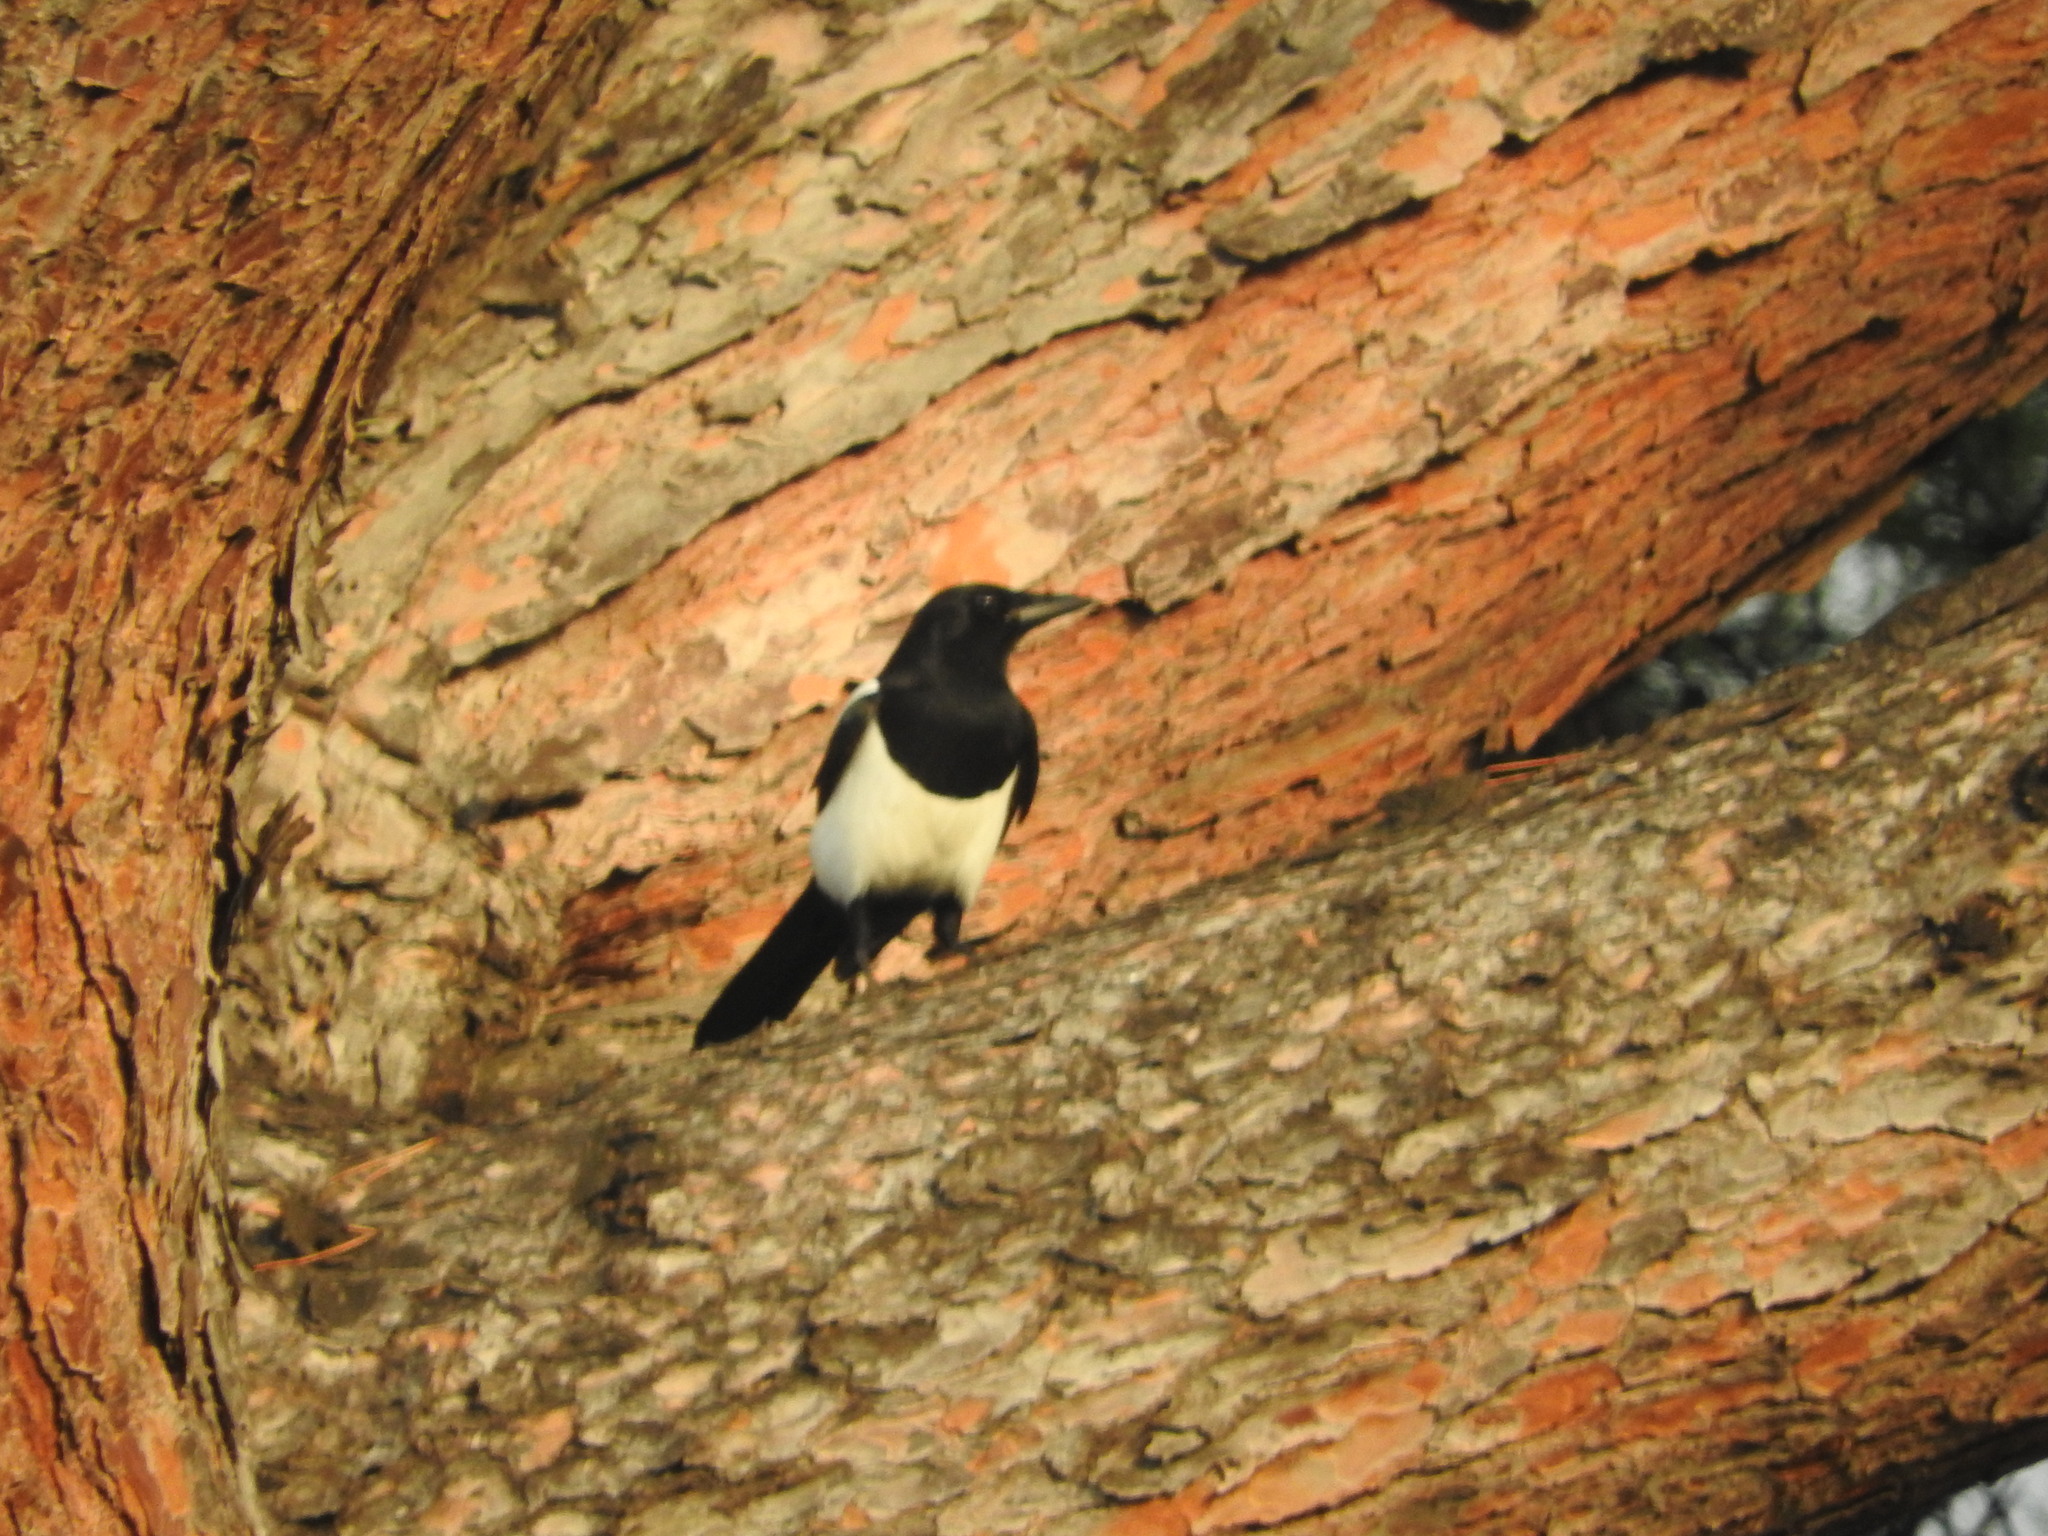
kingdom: Animalia
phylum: Chordata
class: Aves
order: Passeriformes
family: Corvidae
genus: Pica
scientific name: Pica pica
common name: Eurasian magpie
